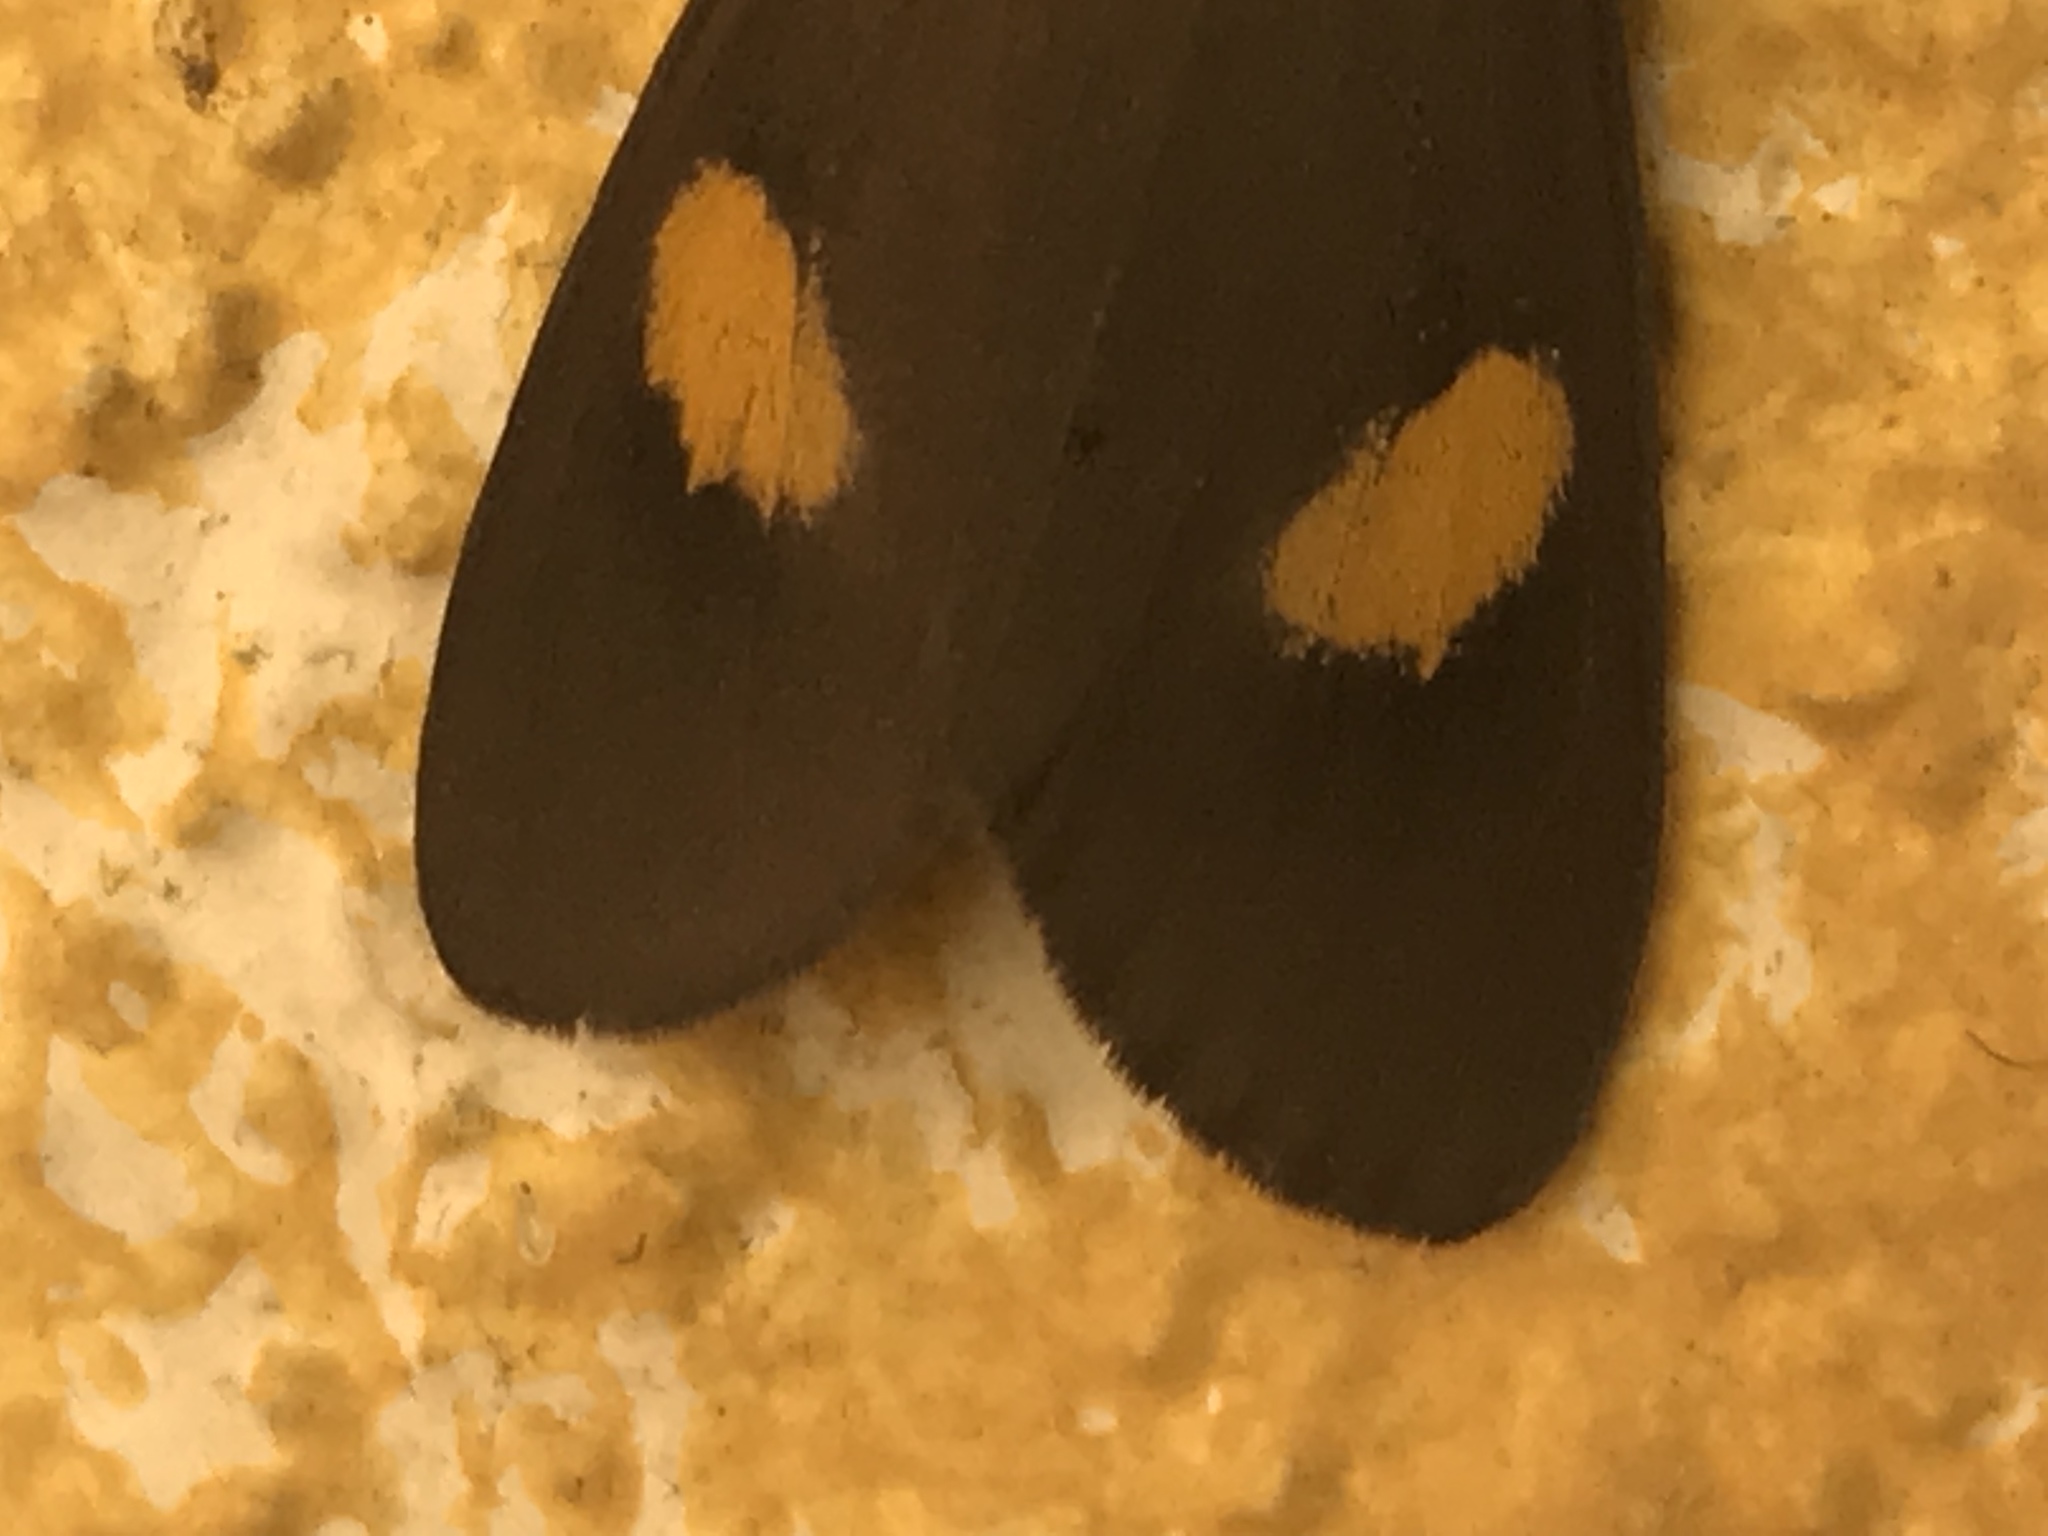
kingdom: Animalia
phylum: Arthropoda
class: Insecta
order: Lepidoptera
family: Notodontidae
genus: Phryganidia
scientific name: Phryganidia naxa
